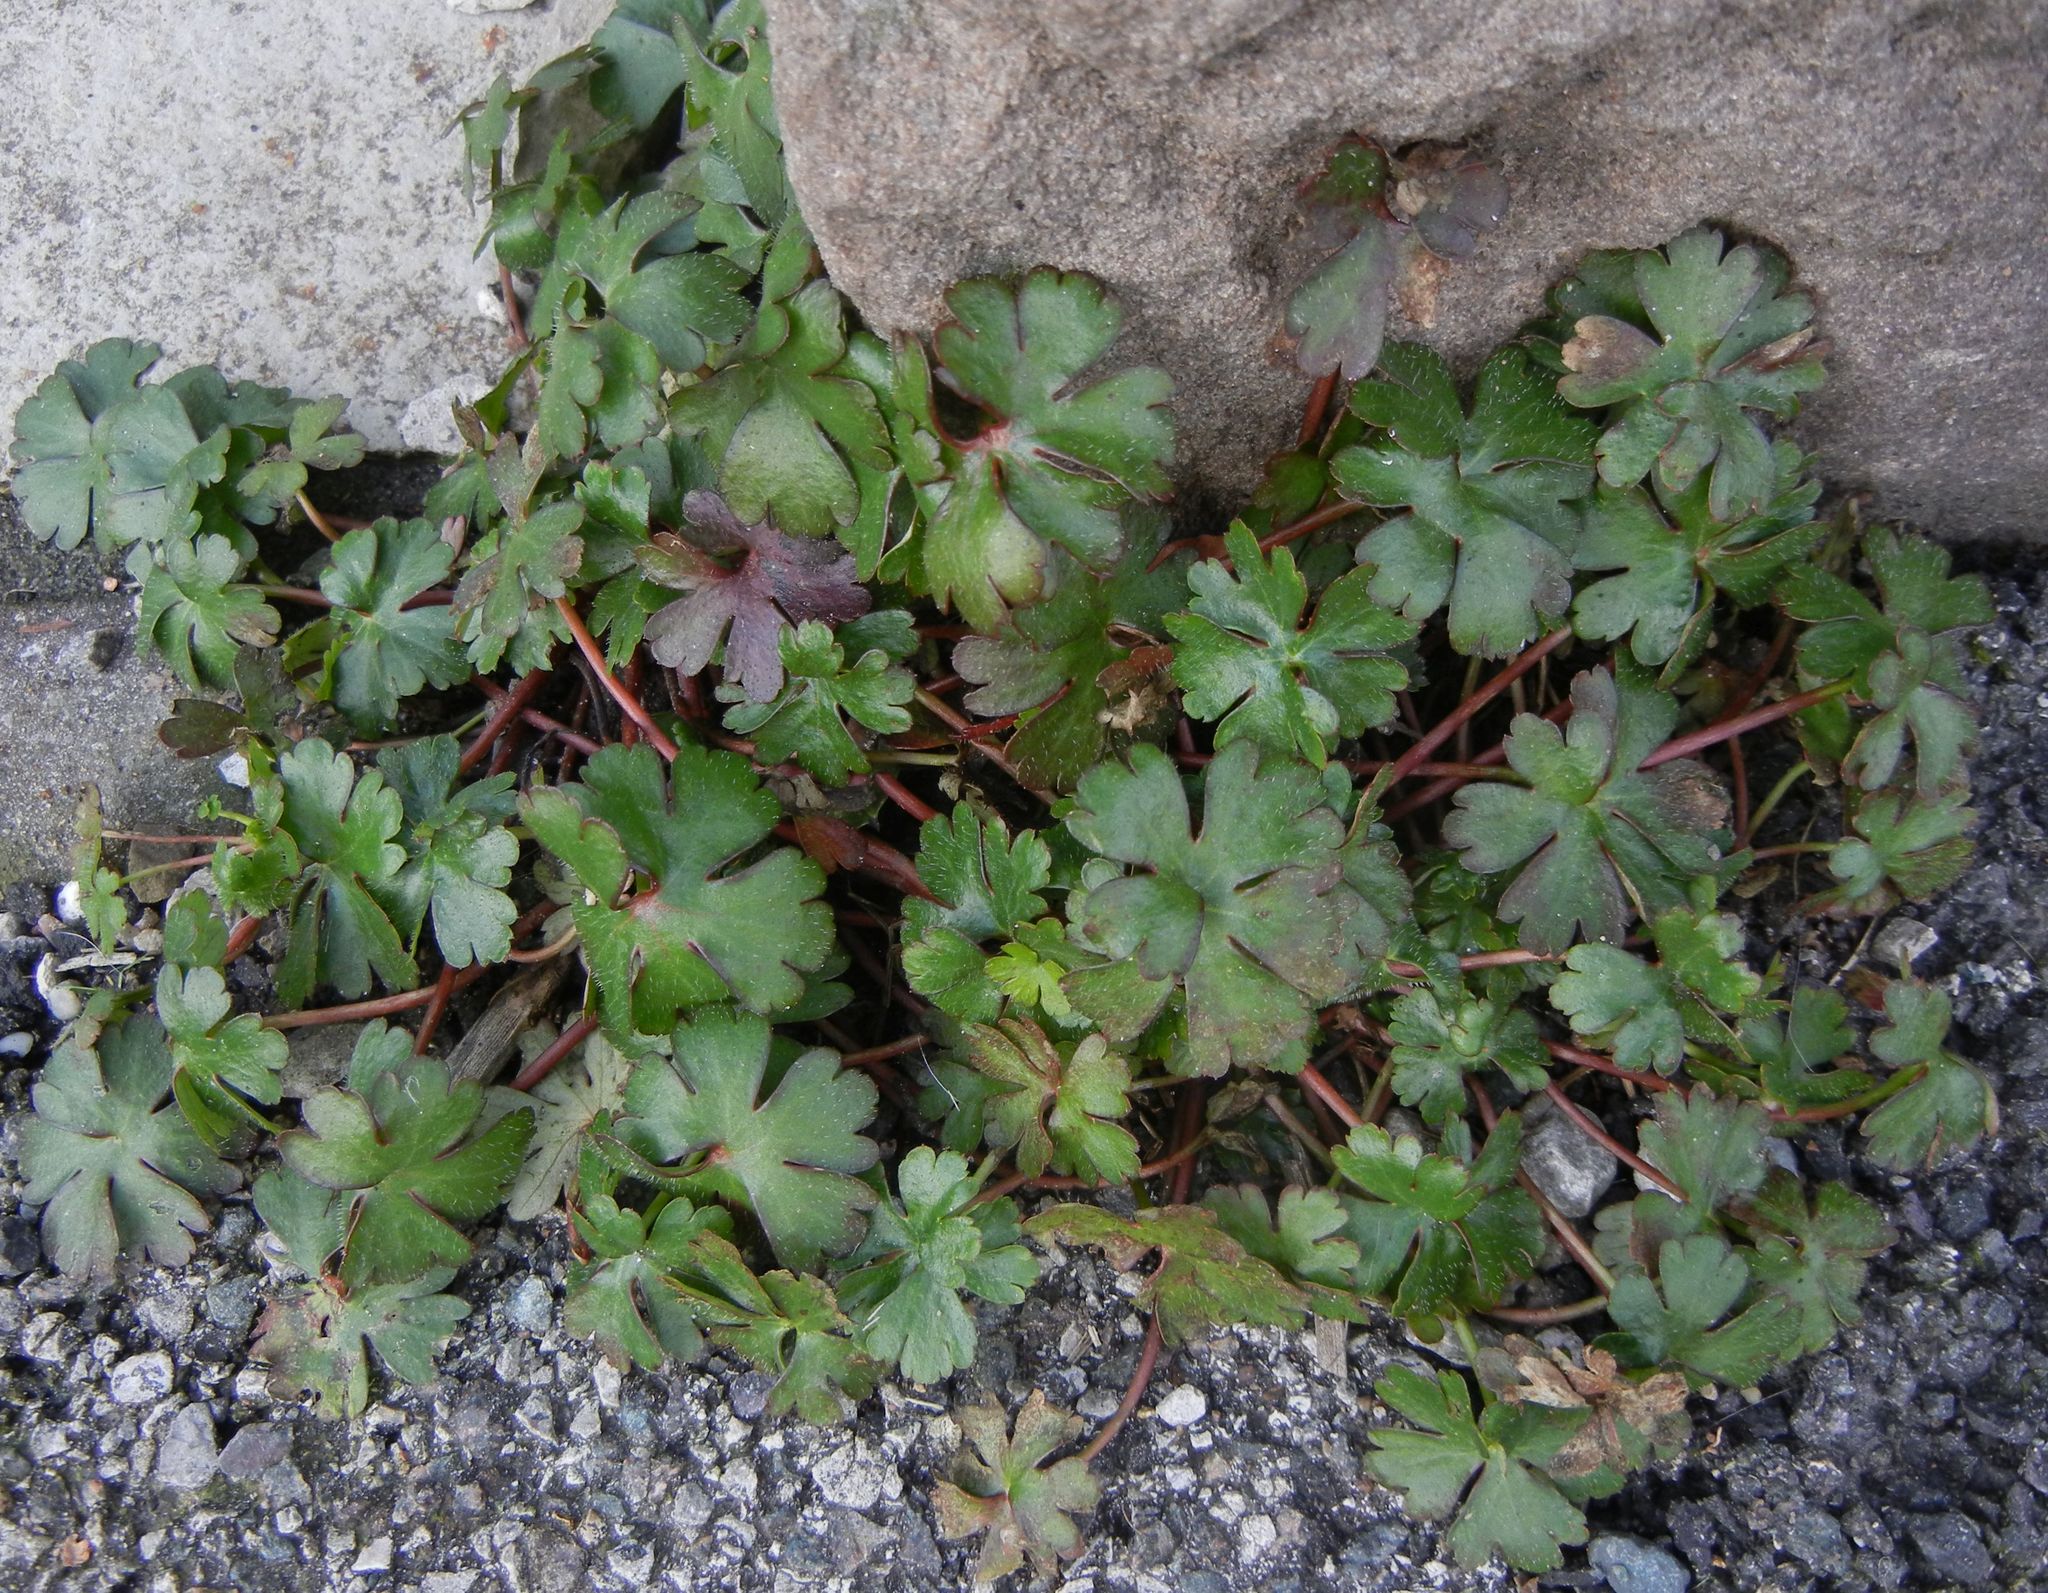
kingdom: Plantae
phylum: Tracheophyta
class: Magnoliopsida
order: Geraniales
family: Geraniaceae
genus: Geranium
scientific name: Geranium lucidum
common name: Shining crane's-bill
